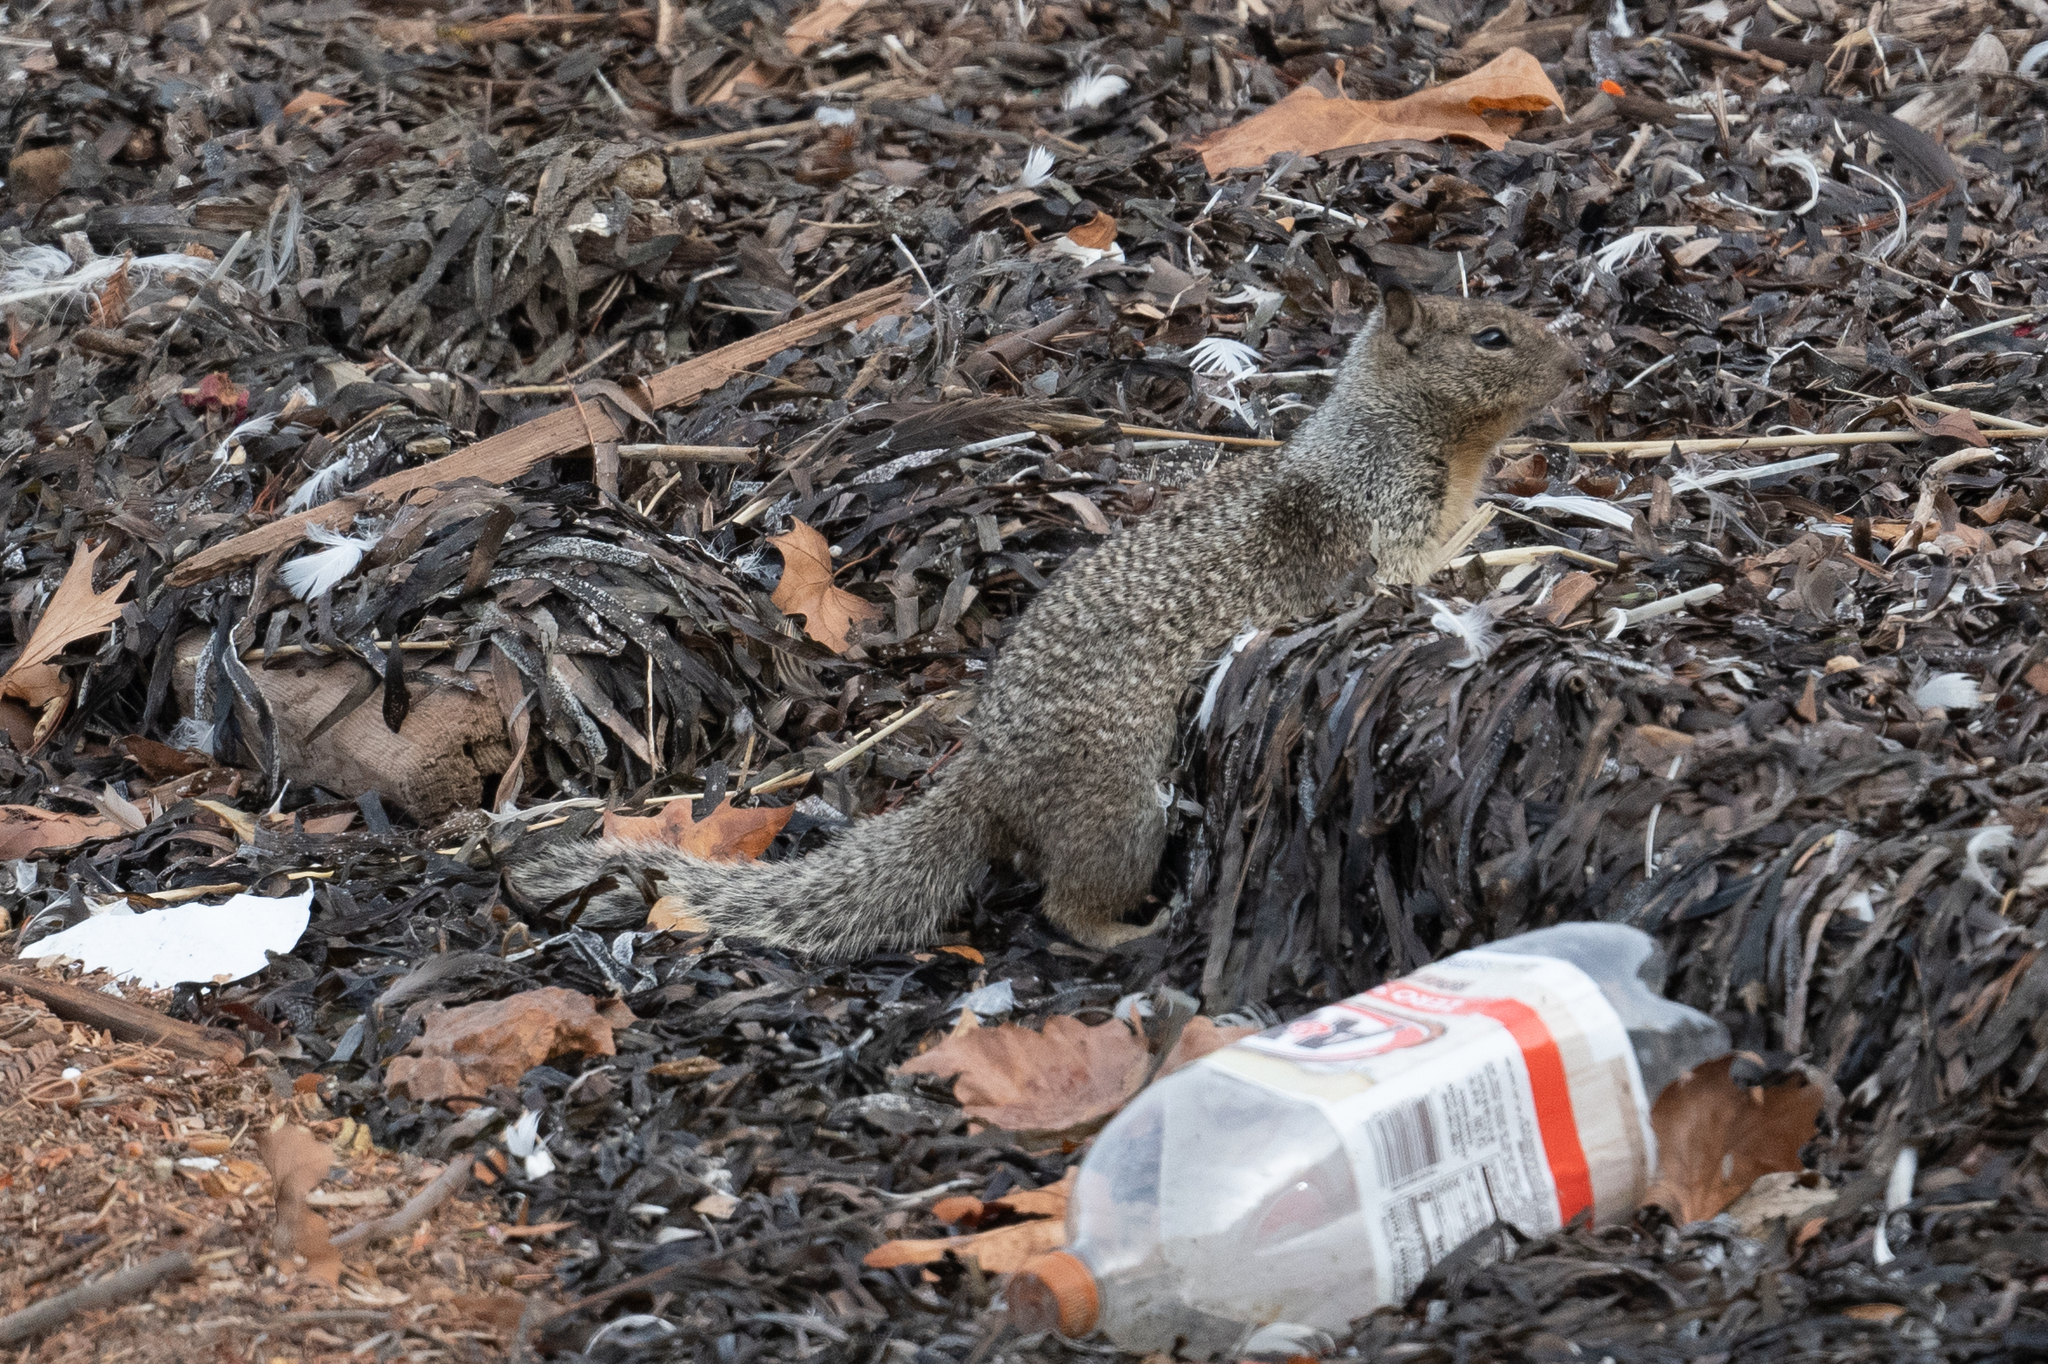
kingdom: Animalia
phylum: Chordata
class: Mammalia
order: Rodentia
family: Sciuridae
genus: Otospermophilus
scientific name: Otospermophilus beecheyi
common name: California ground squirrel
